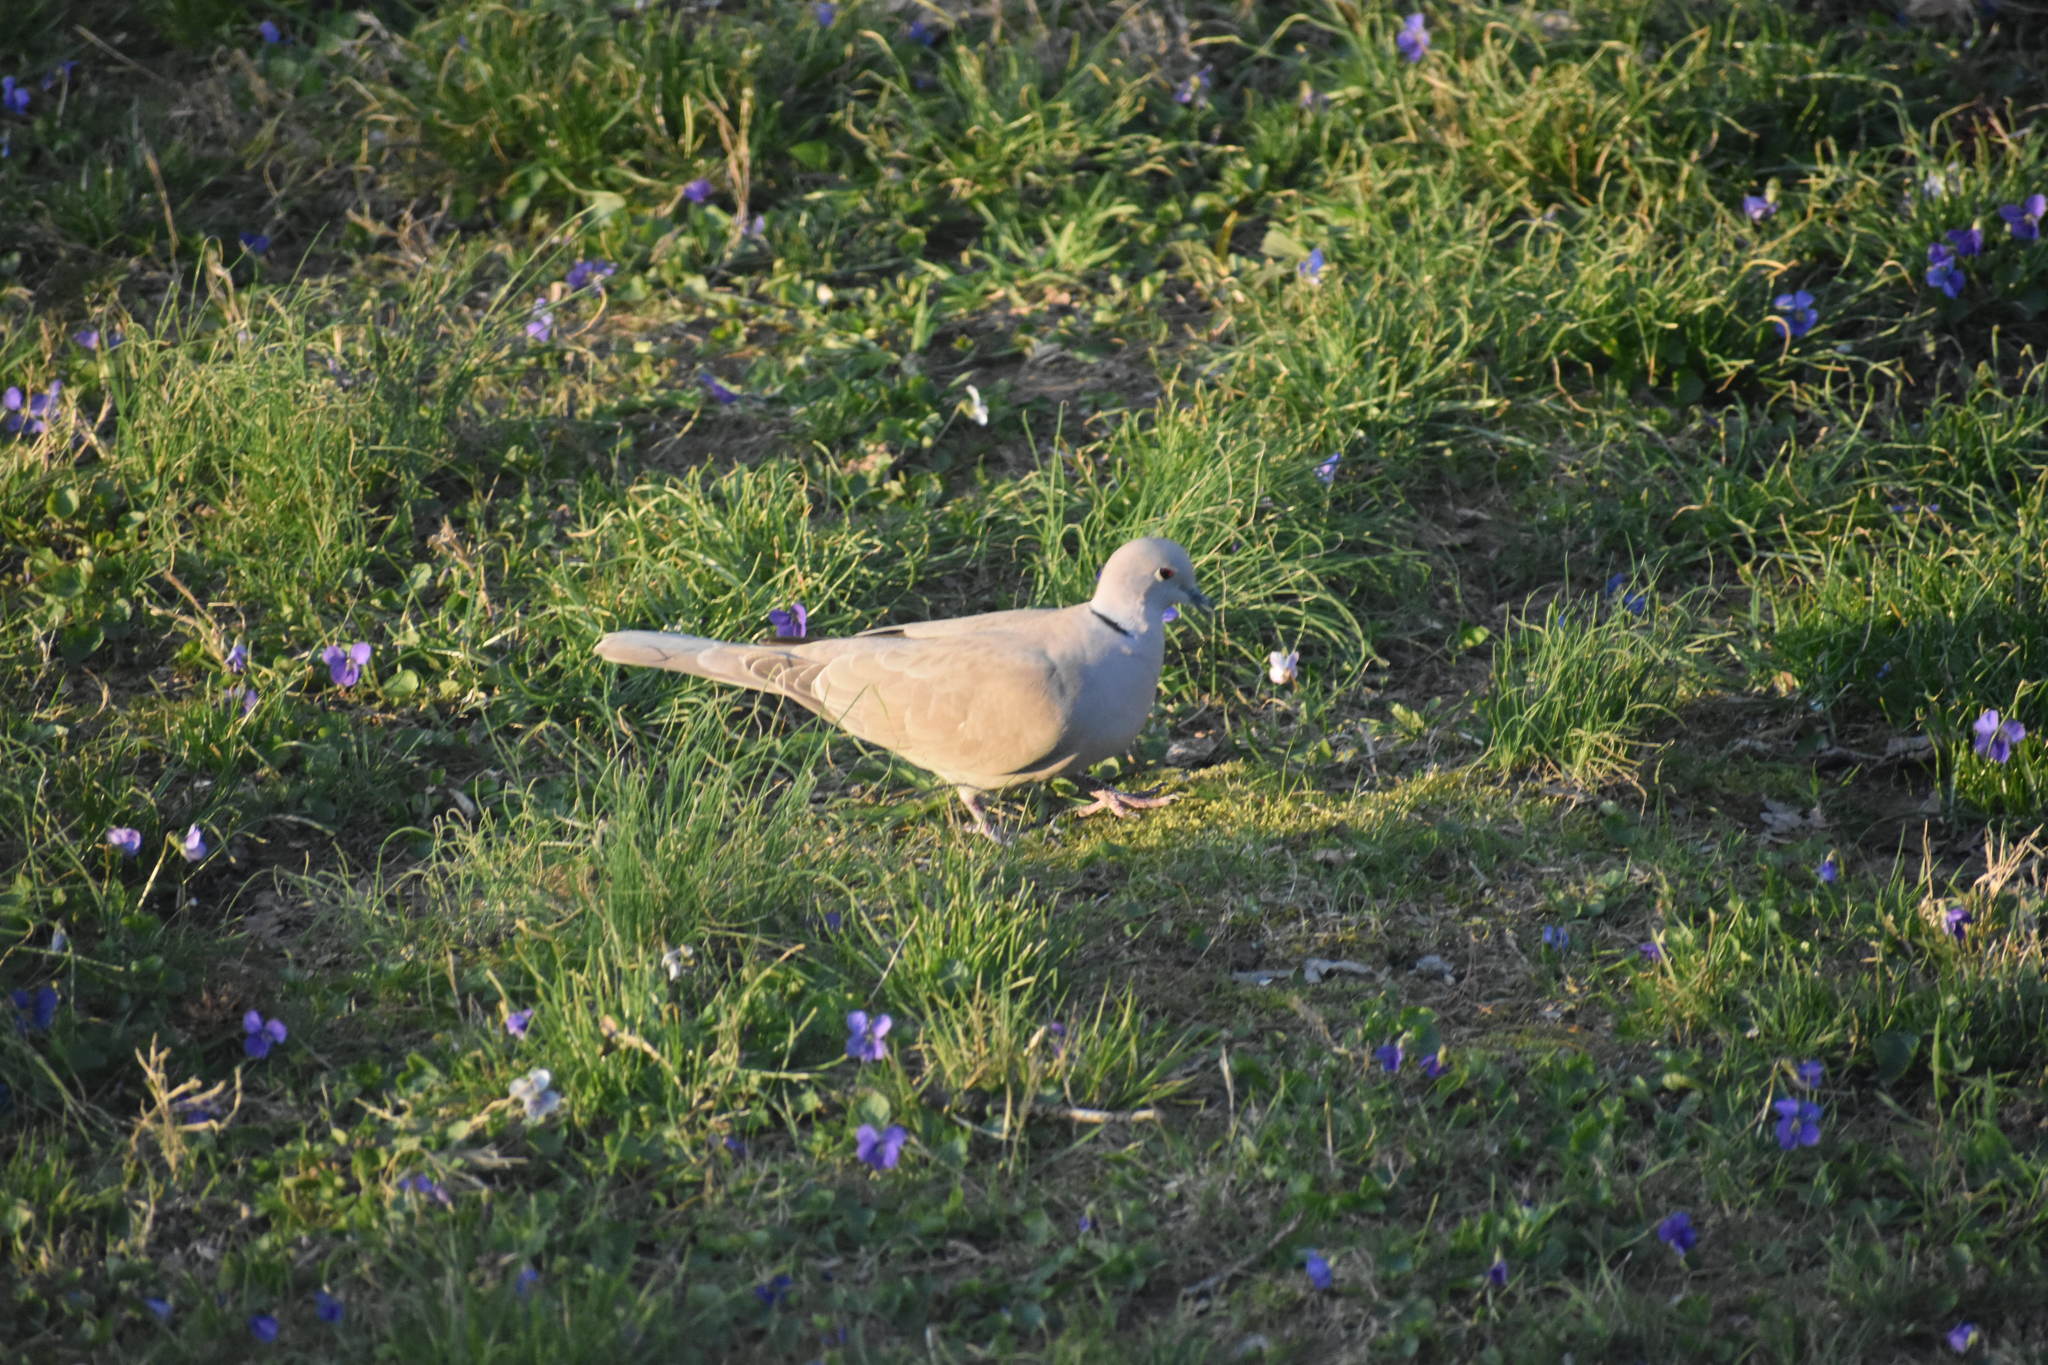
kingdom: Animalia
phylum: Chordata
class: Aves
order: Columbiformes
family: Columbidae
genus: Streptopelia
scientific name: Streptopelia decaocto
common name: Eurasian collared dove
